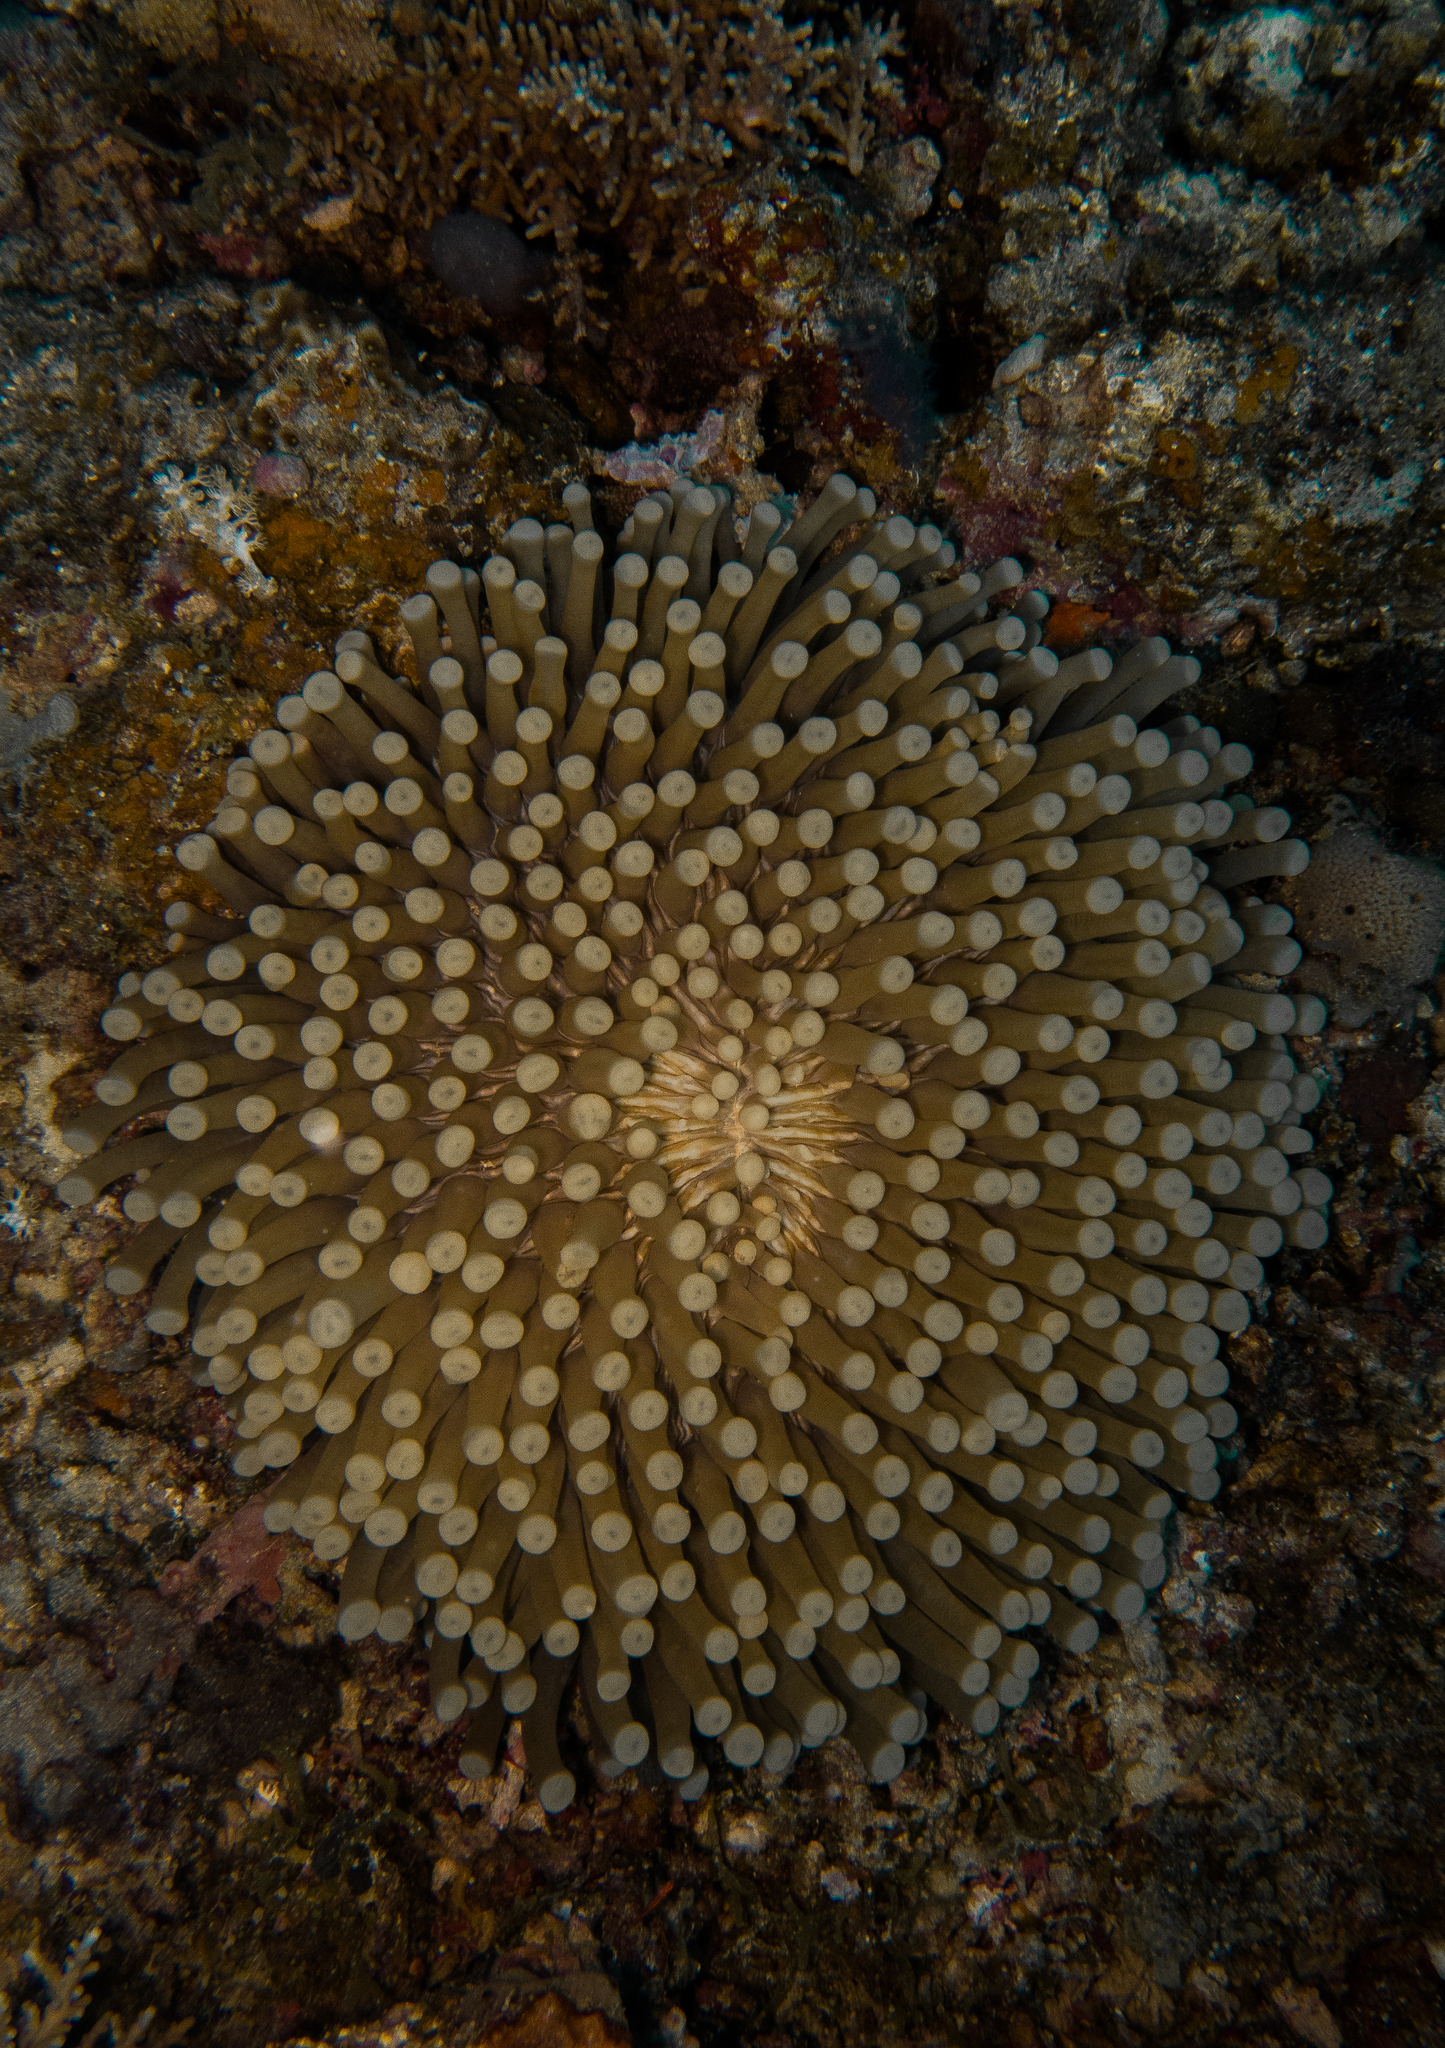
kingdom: Animalia
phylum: Cnidaria
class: Anthozoa
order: Scleractinia
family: Fungiidae
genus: Heliofungia
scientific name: Heliofungia actiniformis
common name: Plate coral
